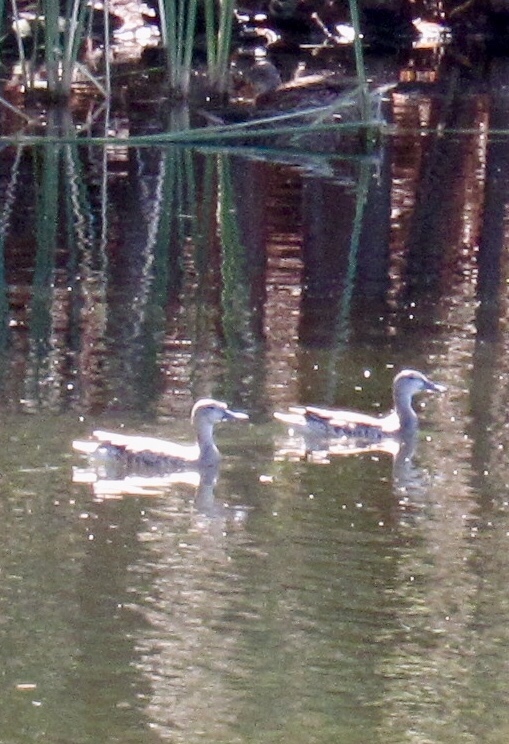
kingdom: Animalia
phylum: Chordata
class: Aves
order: Anseriformes
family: Anatidae
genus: Spatula
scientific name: Spatula discors
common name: Blue-winged teal
